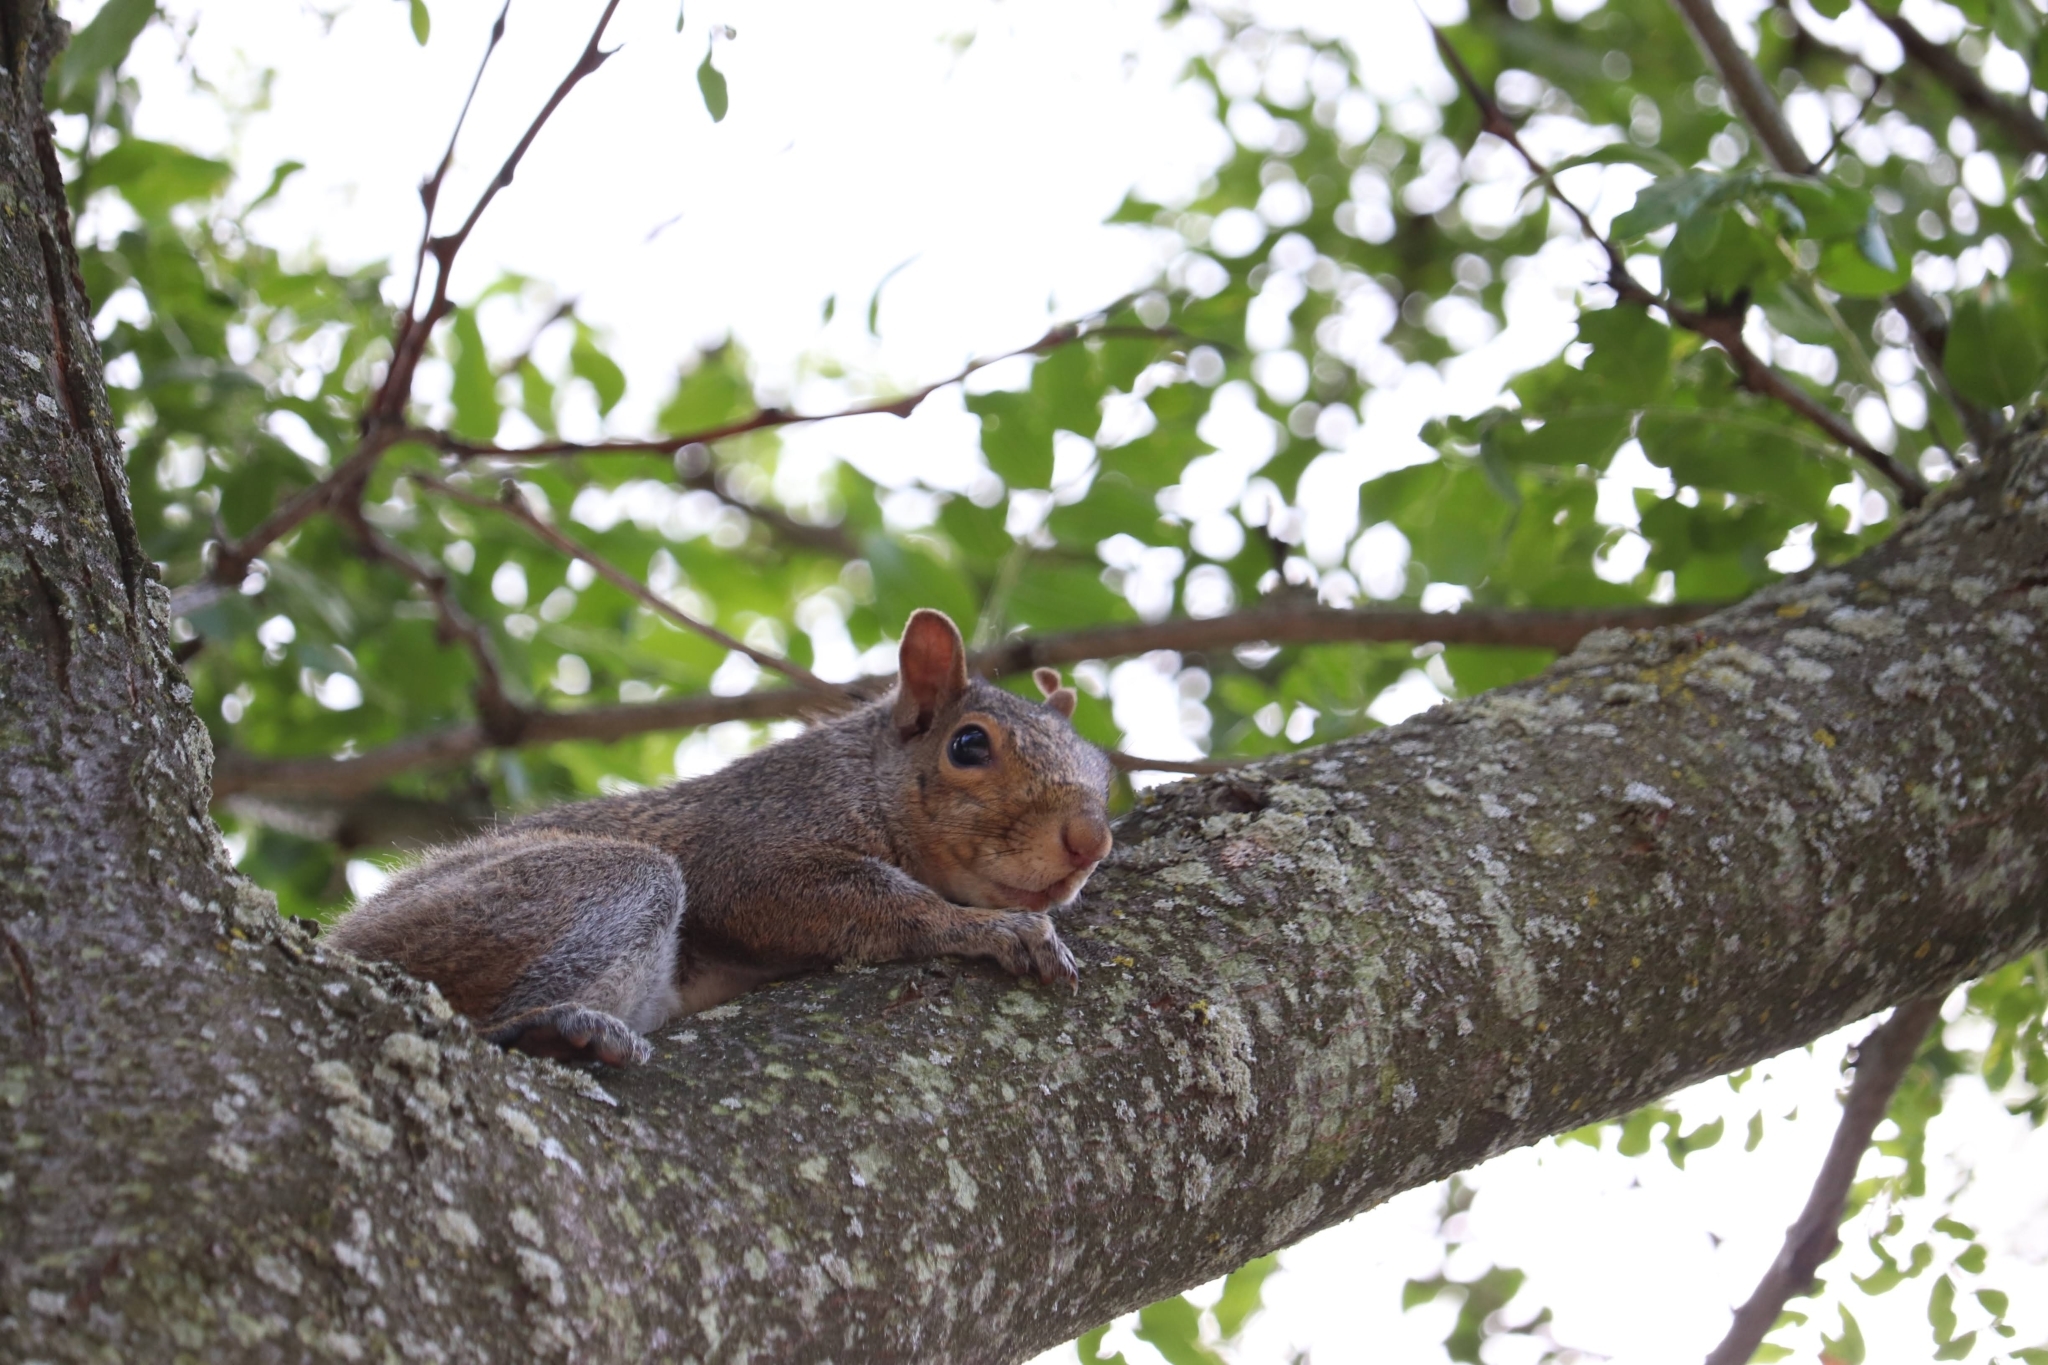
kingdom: Animalia
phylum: Chordata
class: Mammalia
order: Rodentia
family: Sciuridae
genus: Sciurus
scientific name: Sciurus carolinensis
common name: Eastern gray squirrel
